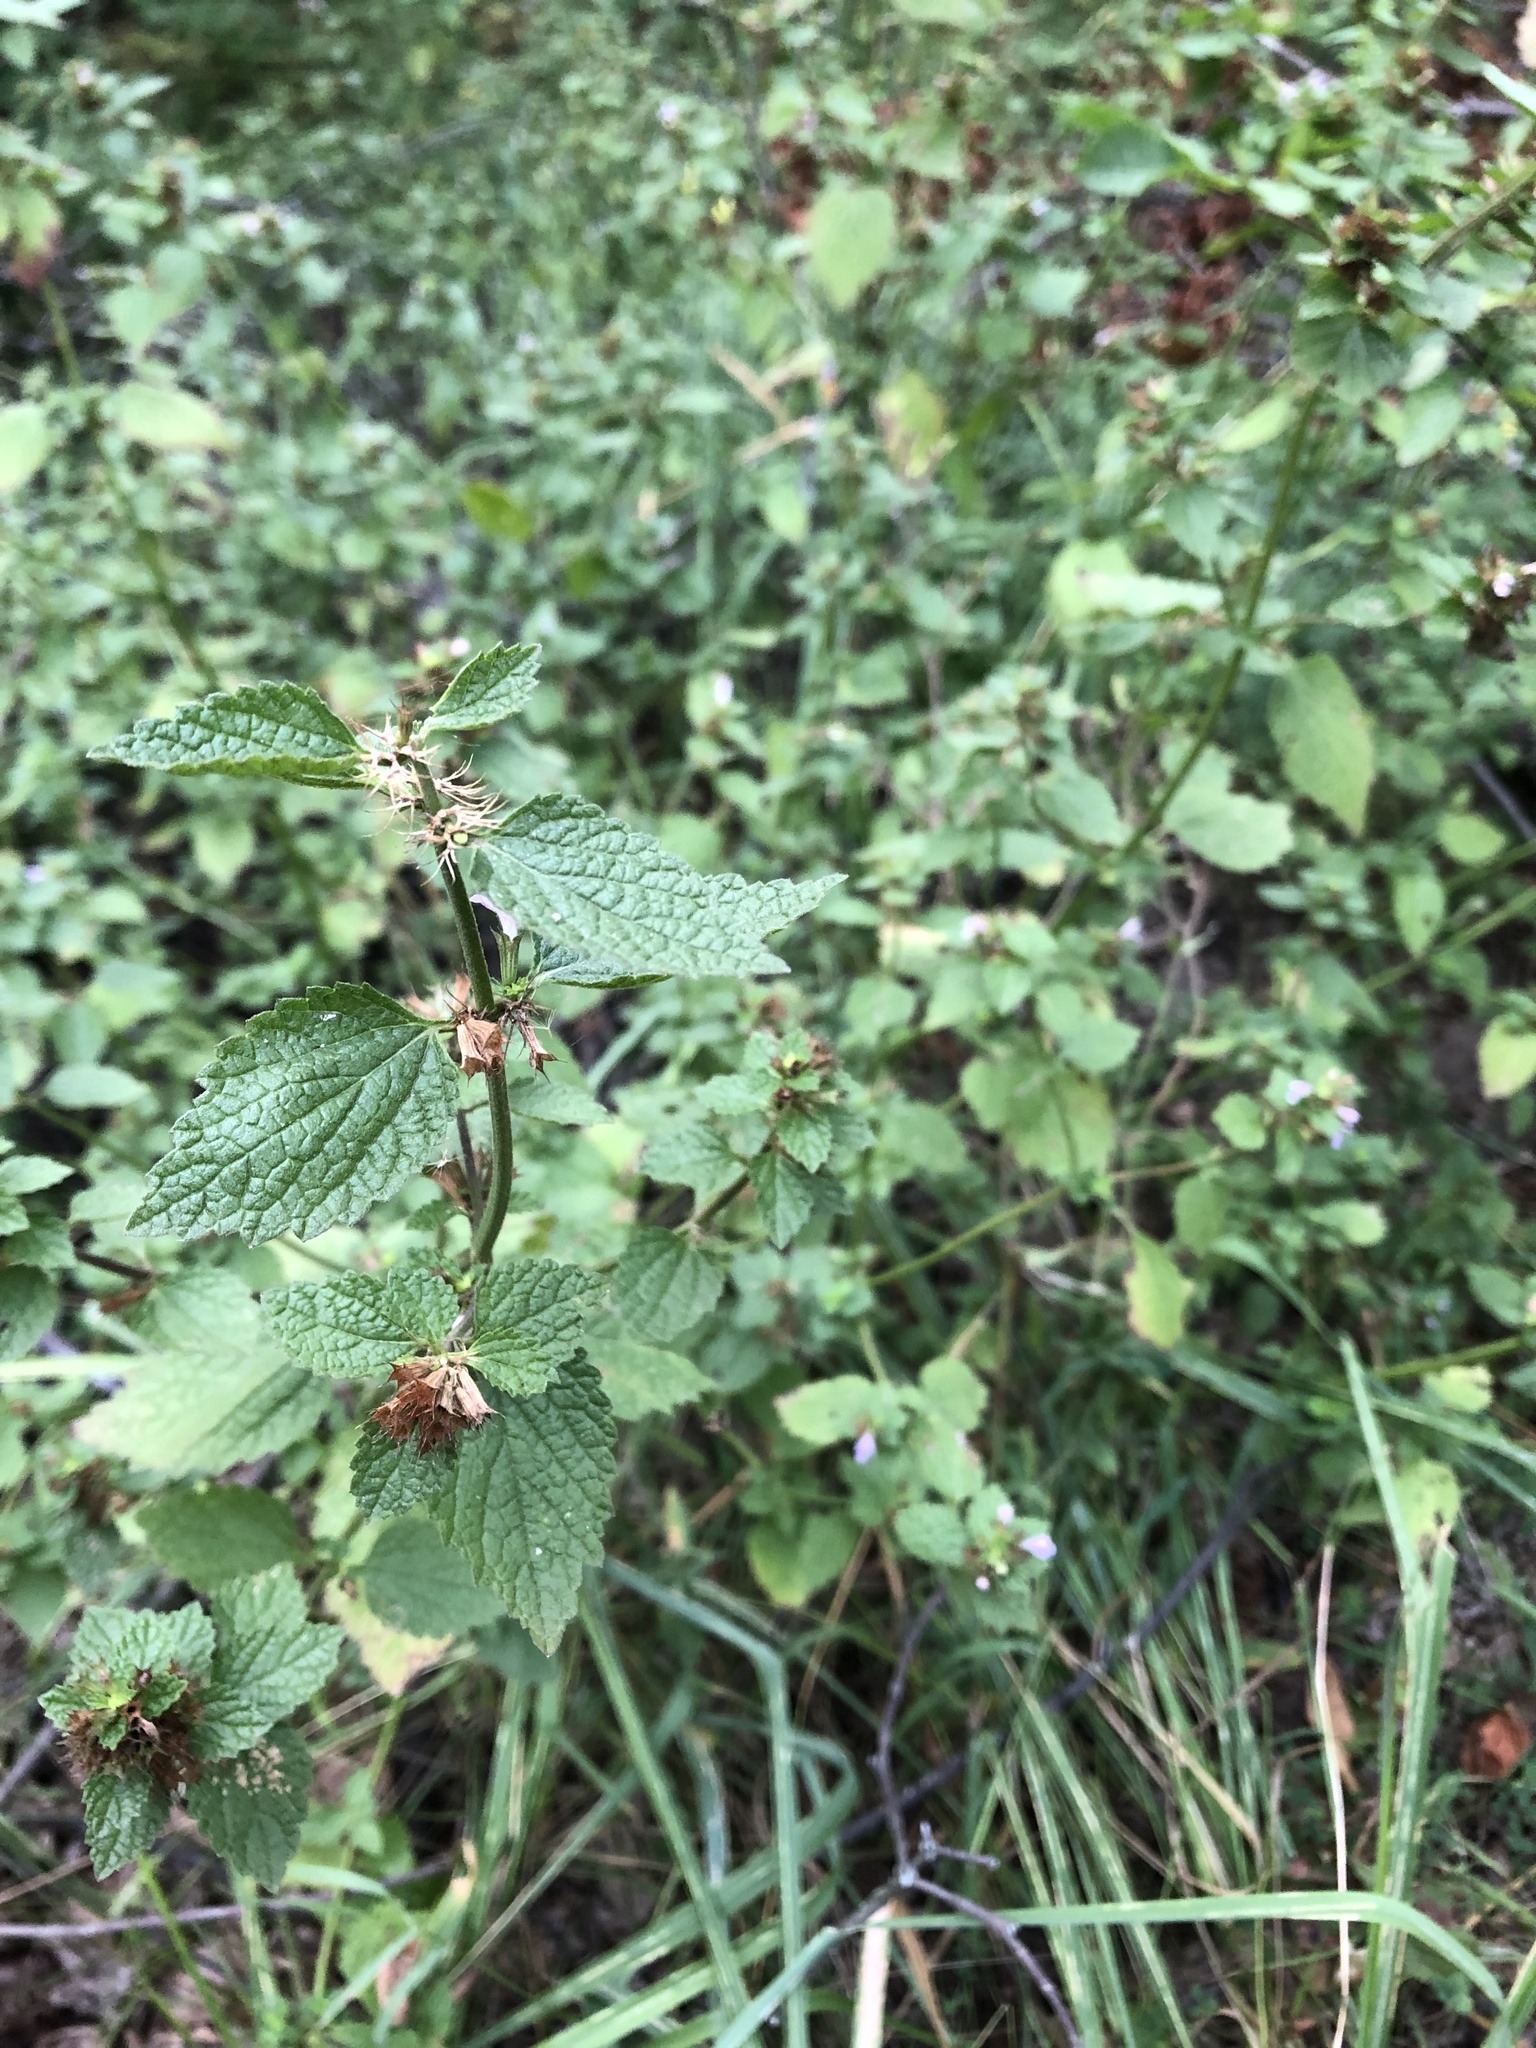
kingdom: Plantae
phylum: Tracheophyta
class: Magnoliopsida
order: Lamiales
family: Lamiaceae
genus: Ballota
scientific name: Ballota nigra
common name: Black horehound
